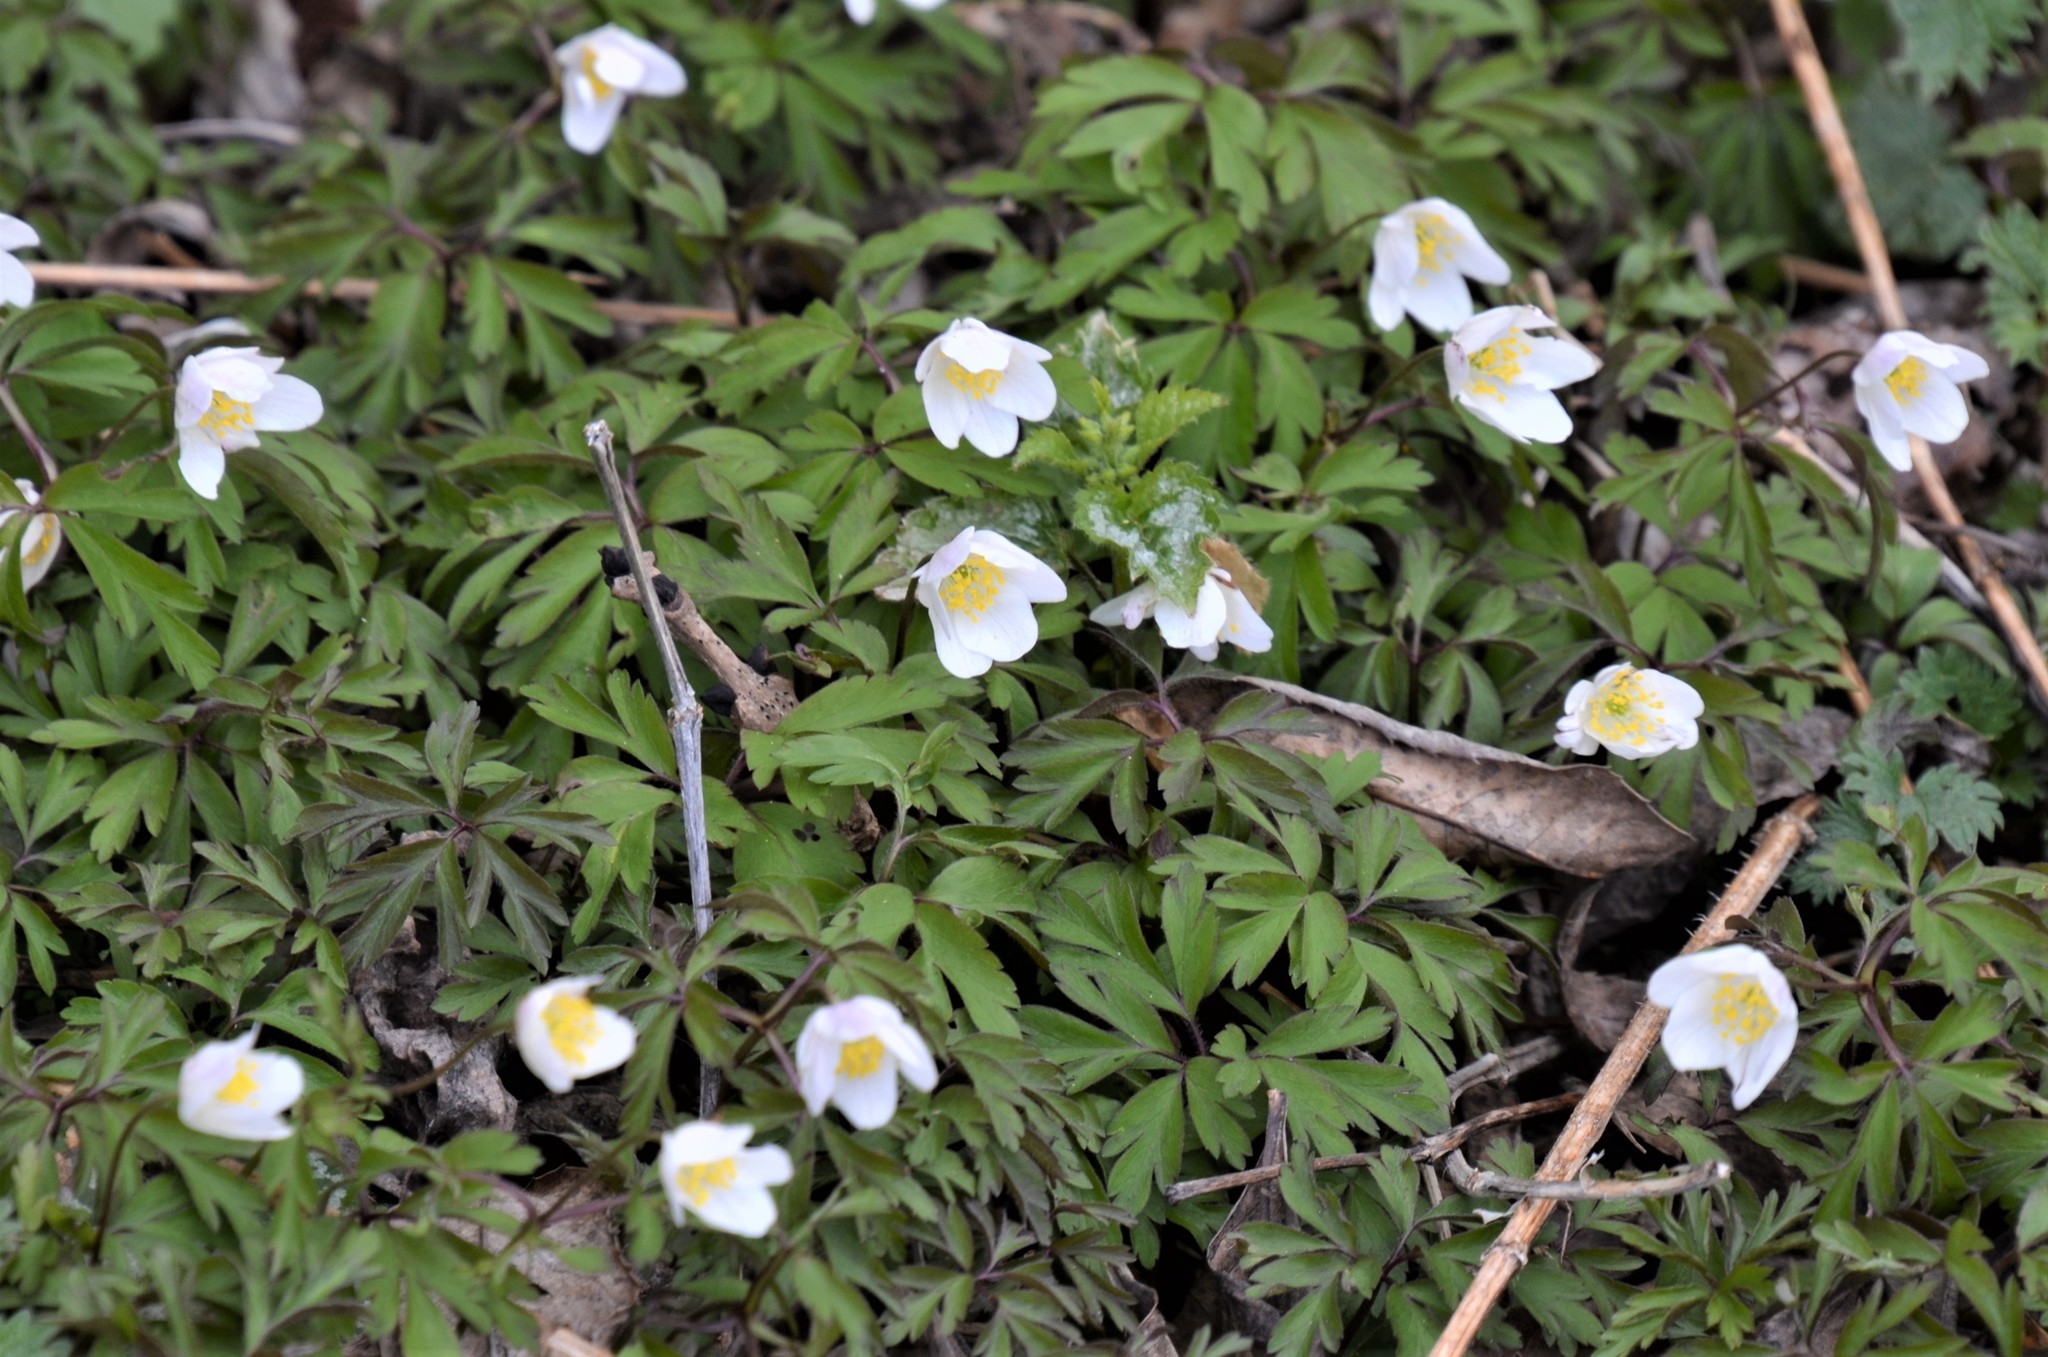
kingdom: Plantae
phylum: Tracheophyta
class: Magnoliopsida
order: Ranunculales
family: Ranunculaceae
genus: Anemone
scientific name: Anemone nemorosa
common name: Wood anemone
